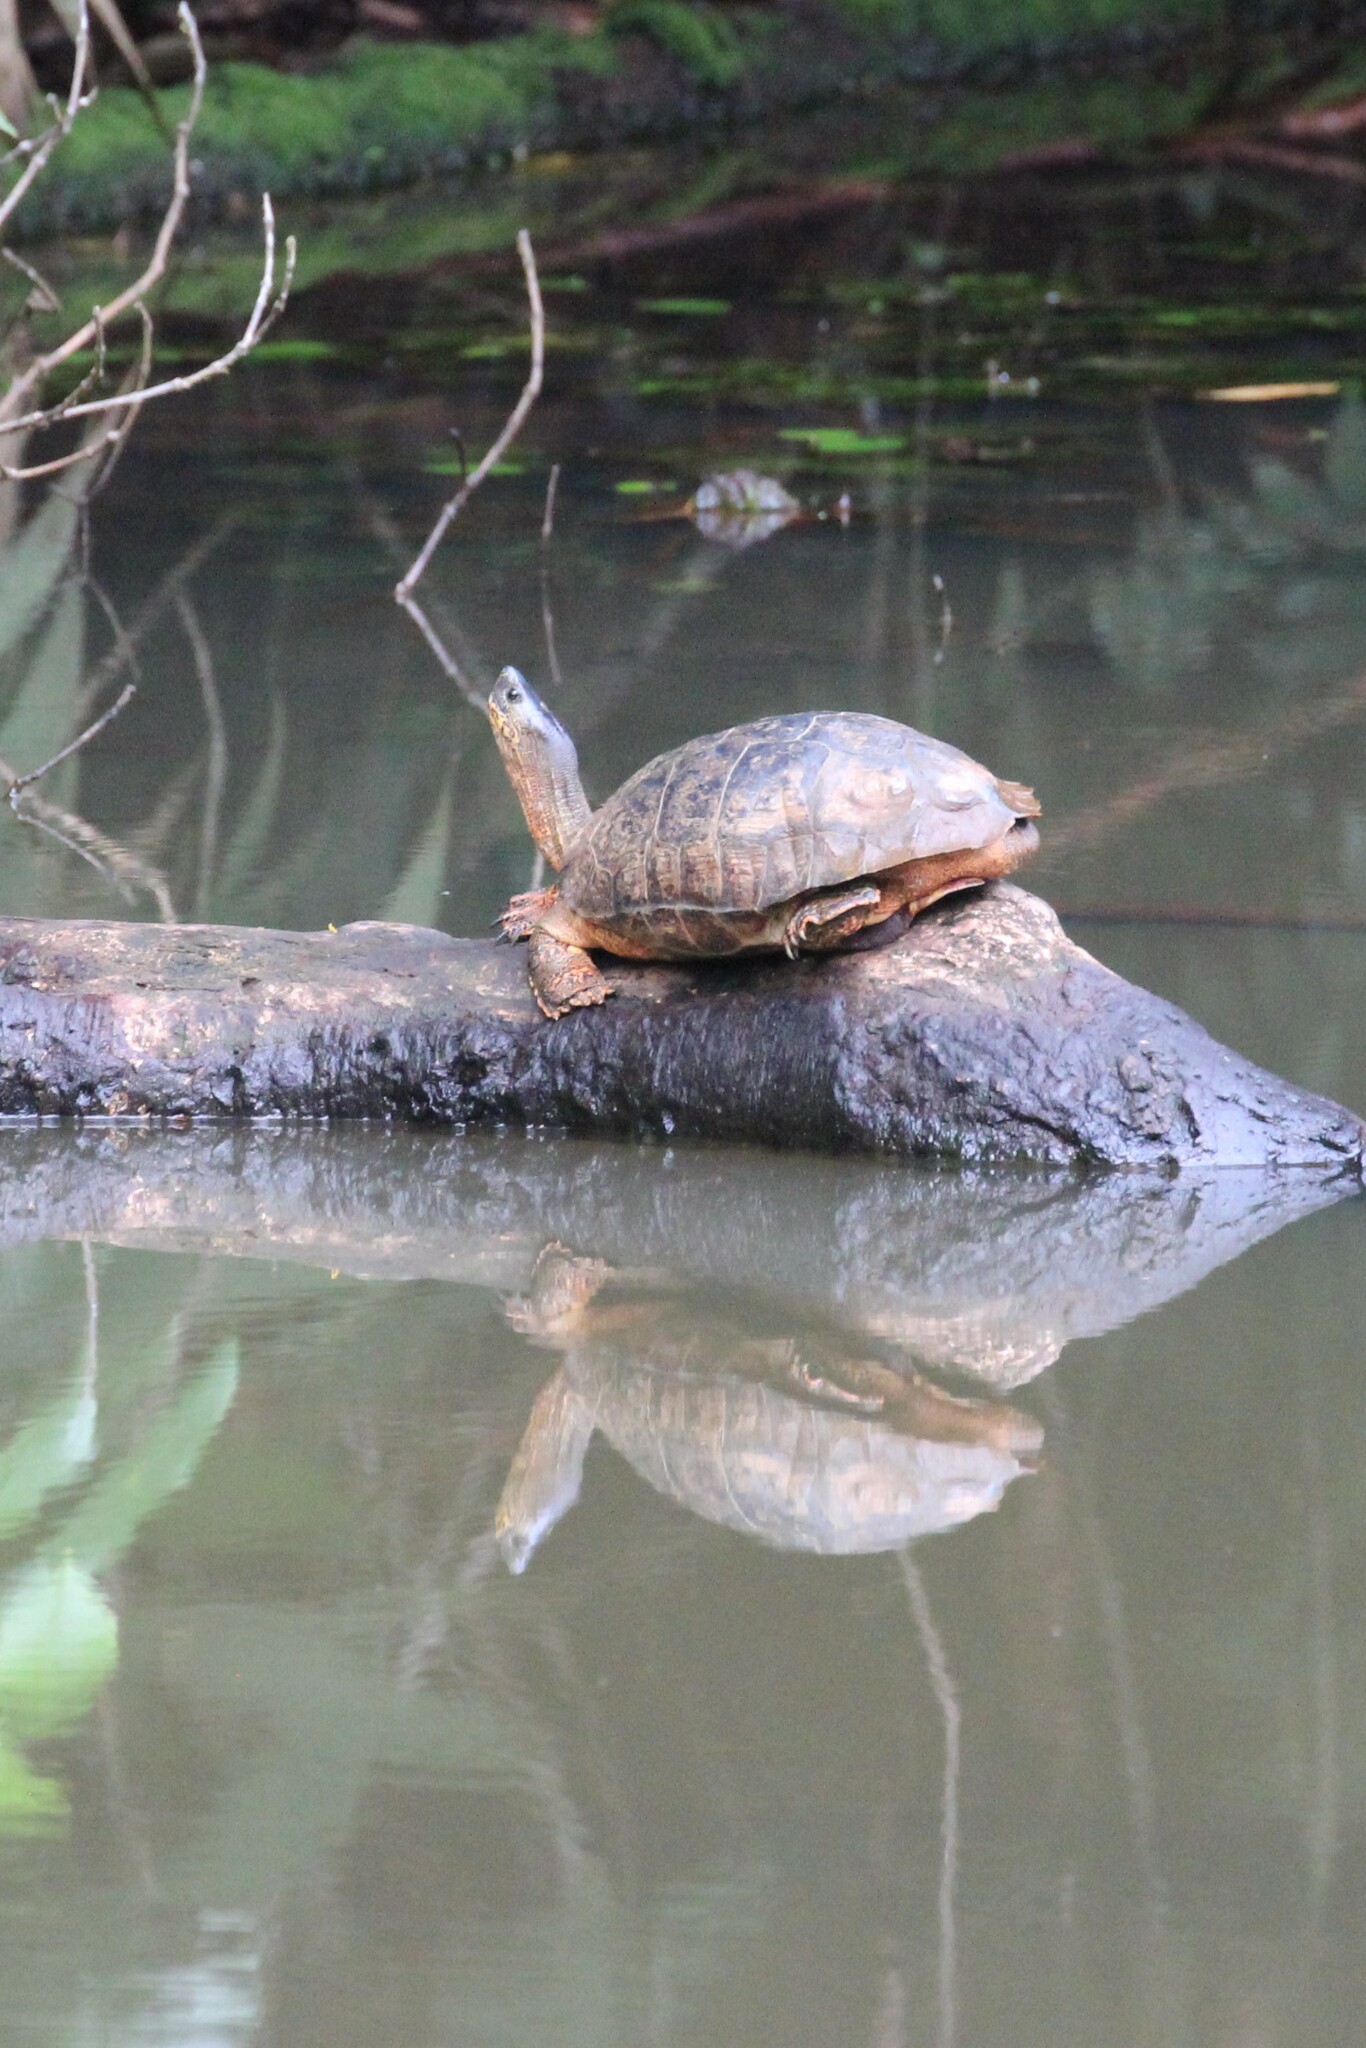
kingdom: Animalia
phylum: Chordata
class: Testudines
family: Geoemydidae
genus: Rhinoclemmys
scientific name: Rhinoclemmys funerea
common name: Black wood turtle
